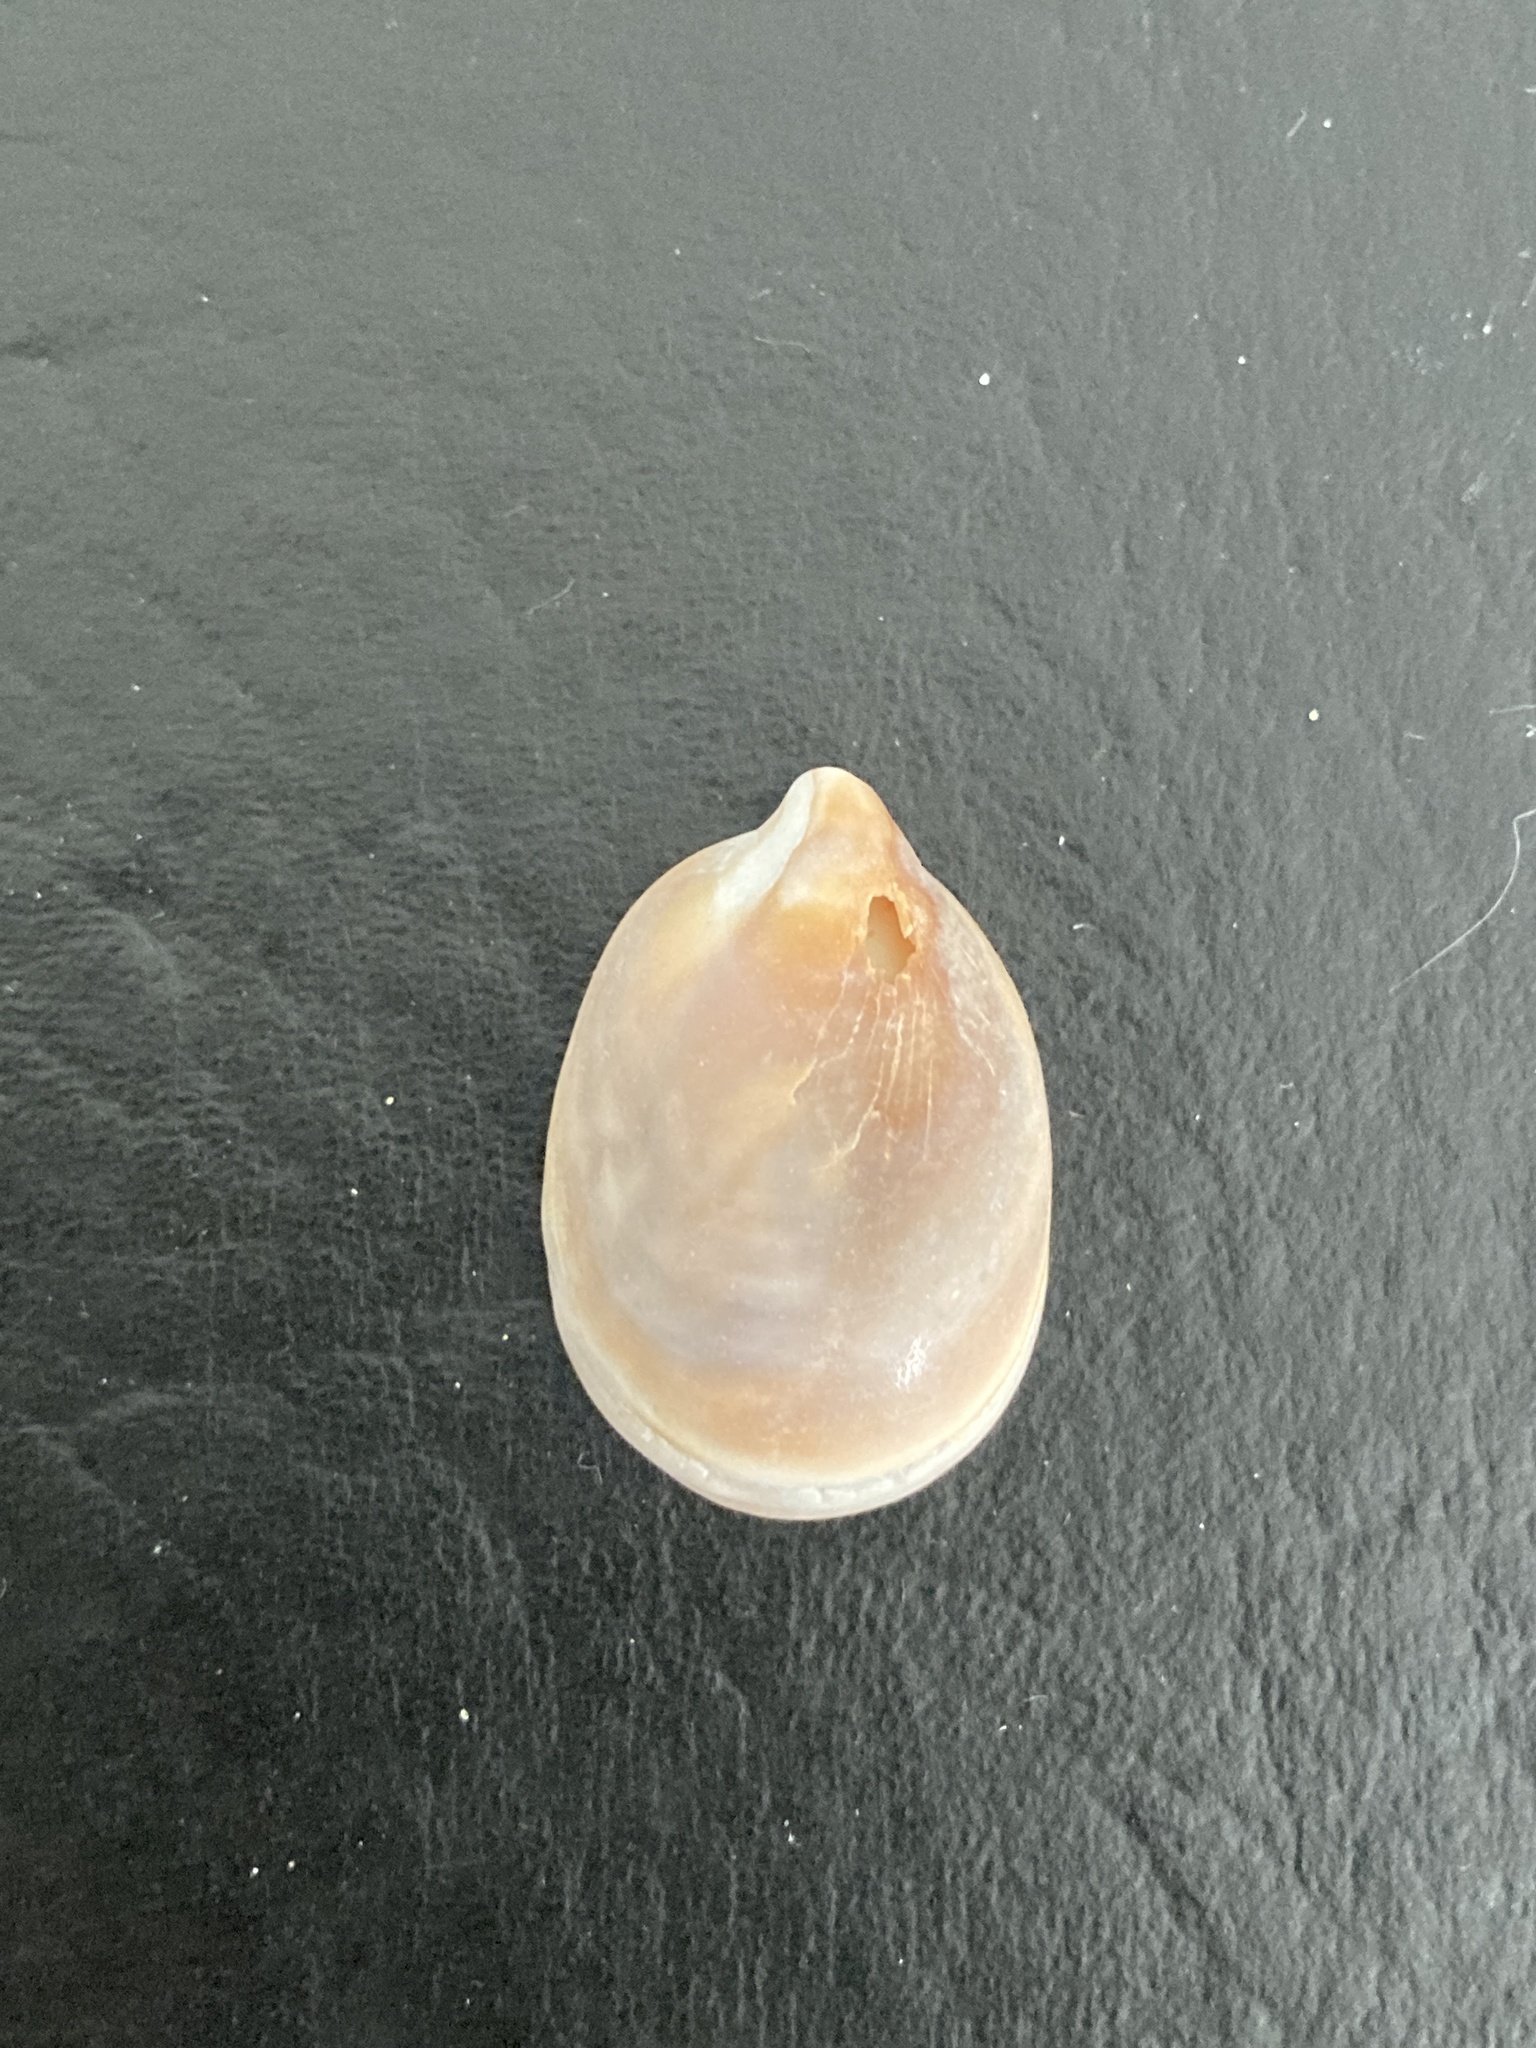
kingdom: Animalia
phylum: Mollusca
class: Gastropoda
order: Littorinimorpha
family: Calyptraeidae
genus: Crepidula
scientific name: Crepidula cachimilla
